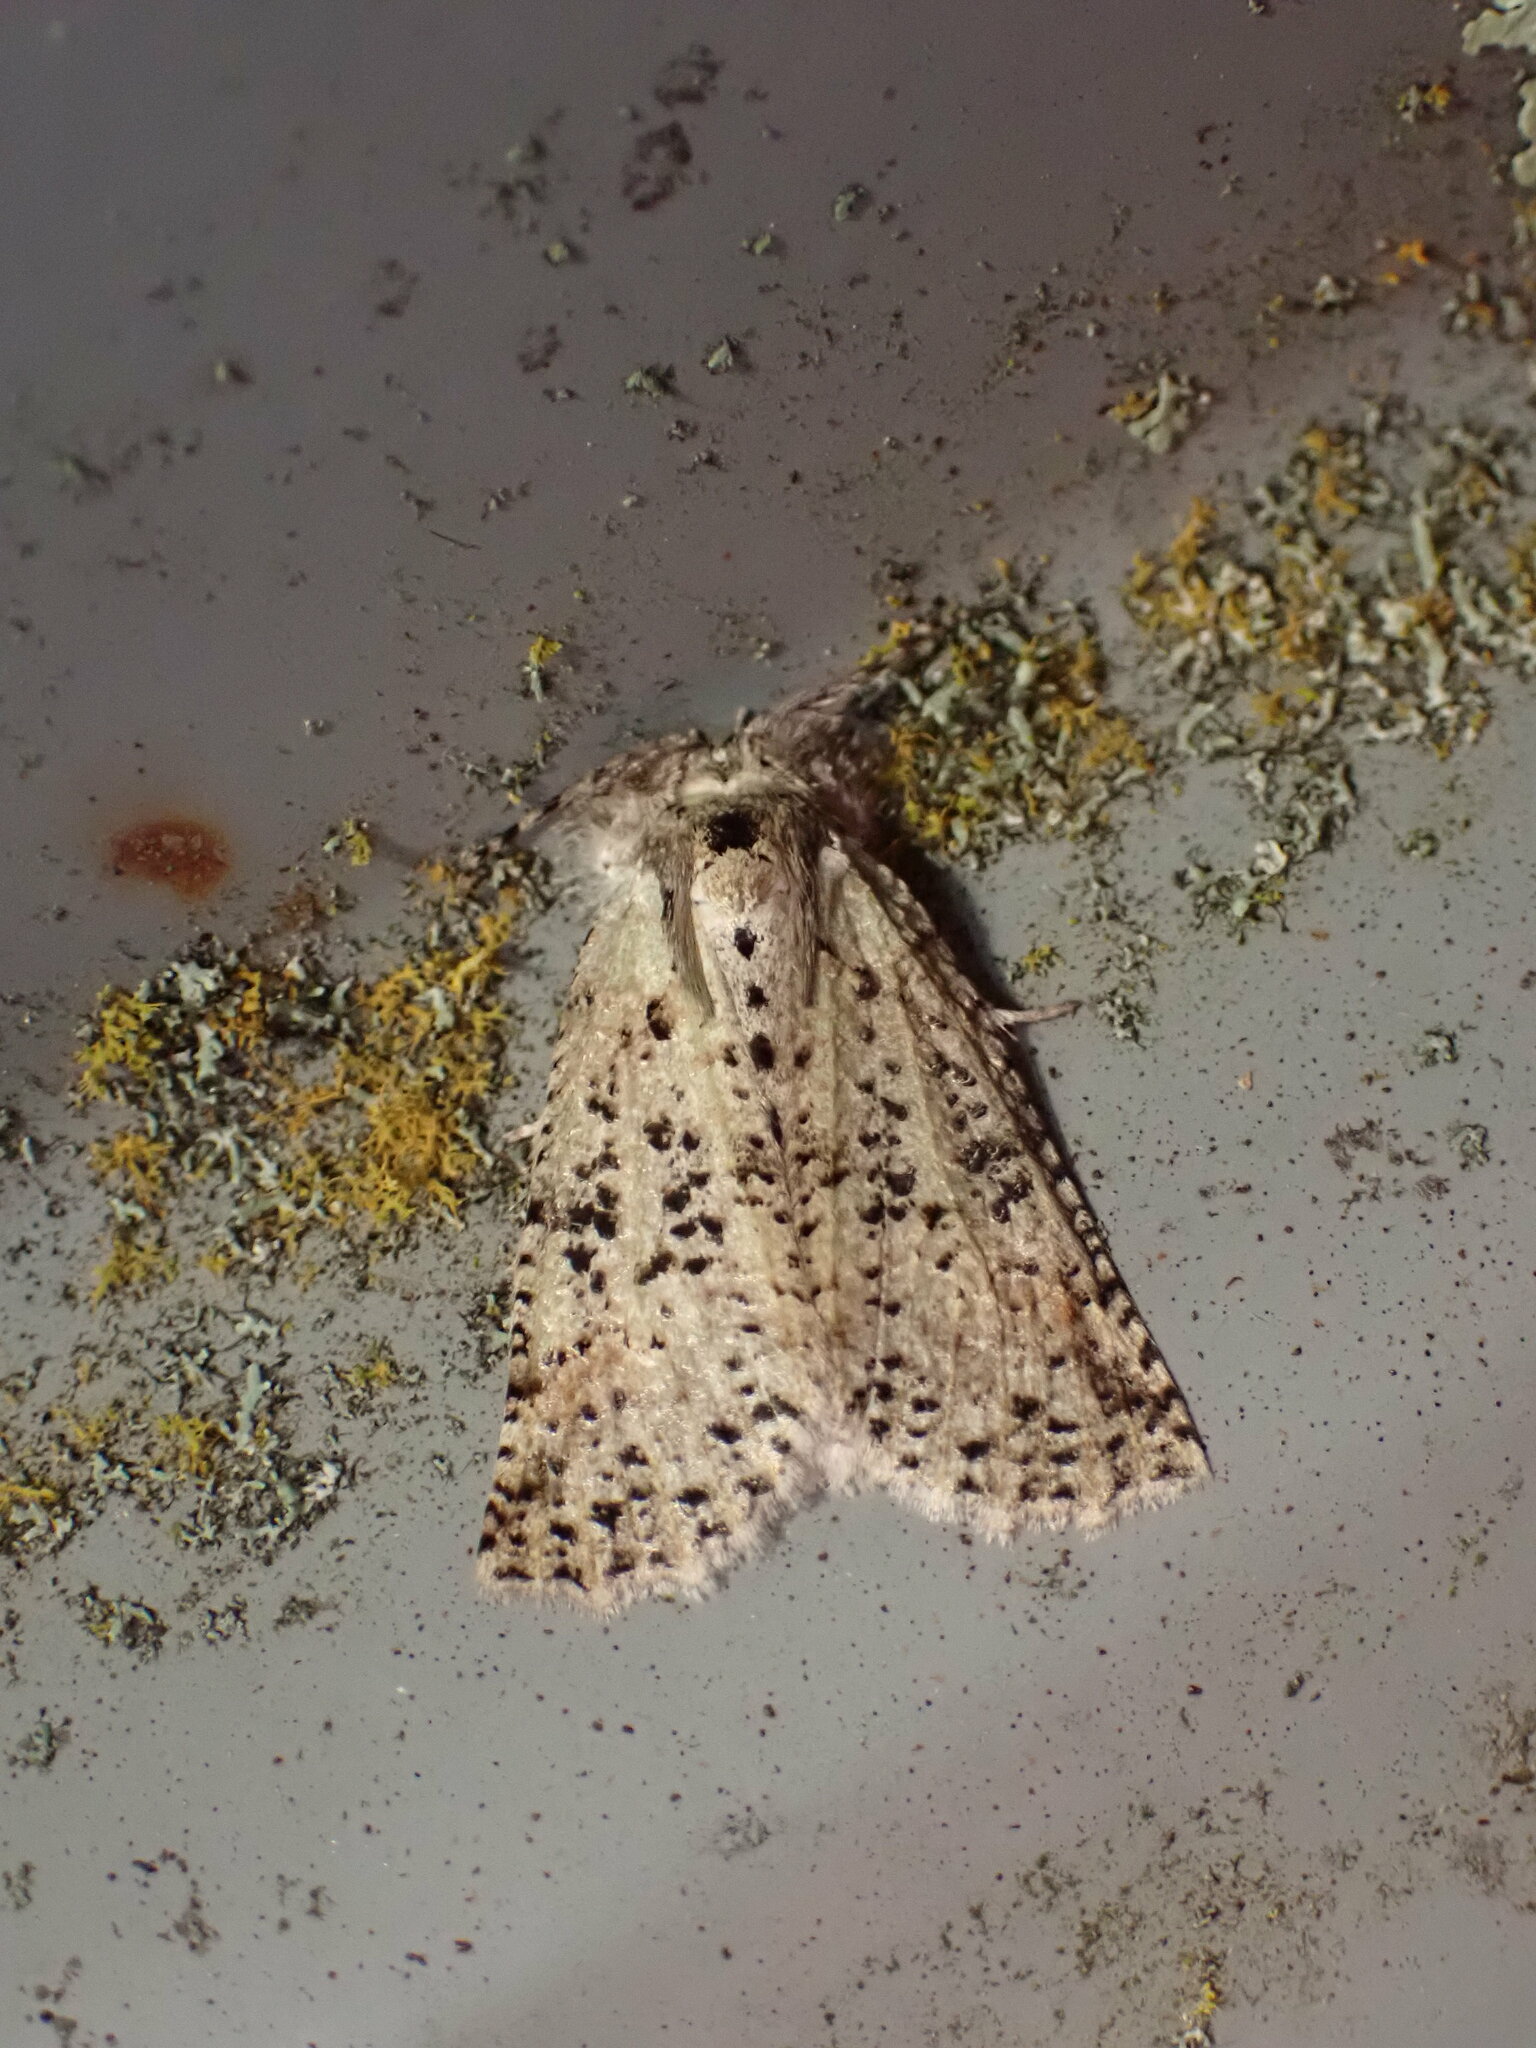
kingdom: Animalia
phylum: Arthropoda
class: Insecta
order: Lepidoptera
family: Geometridae
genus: Declana
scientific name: Declana floccosa
